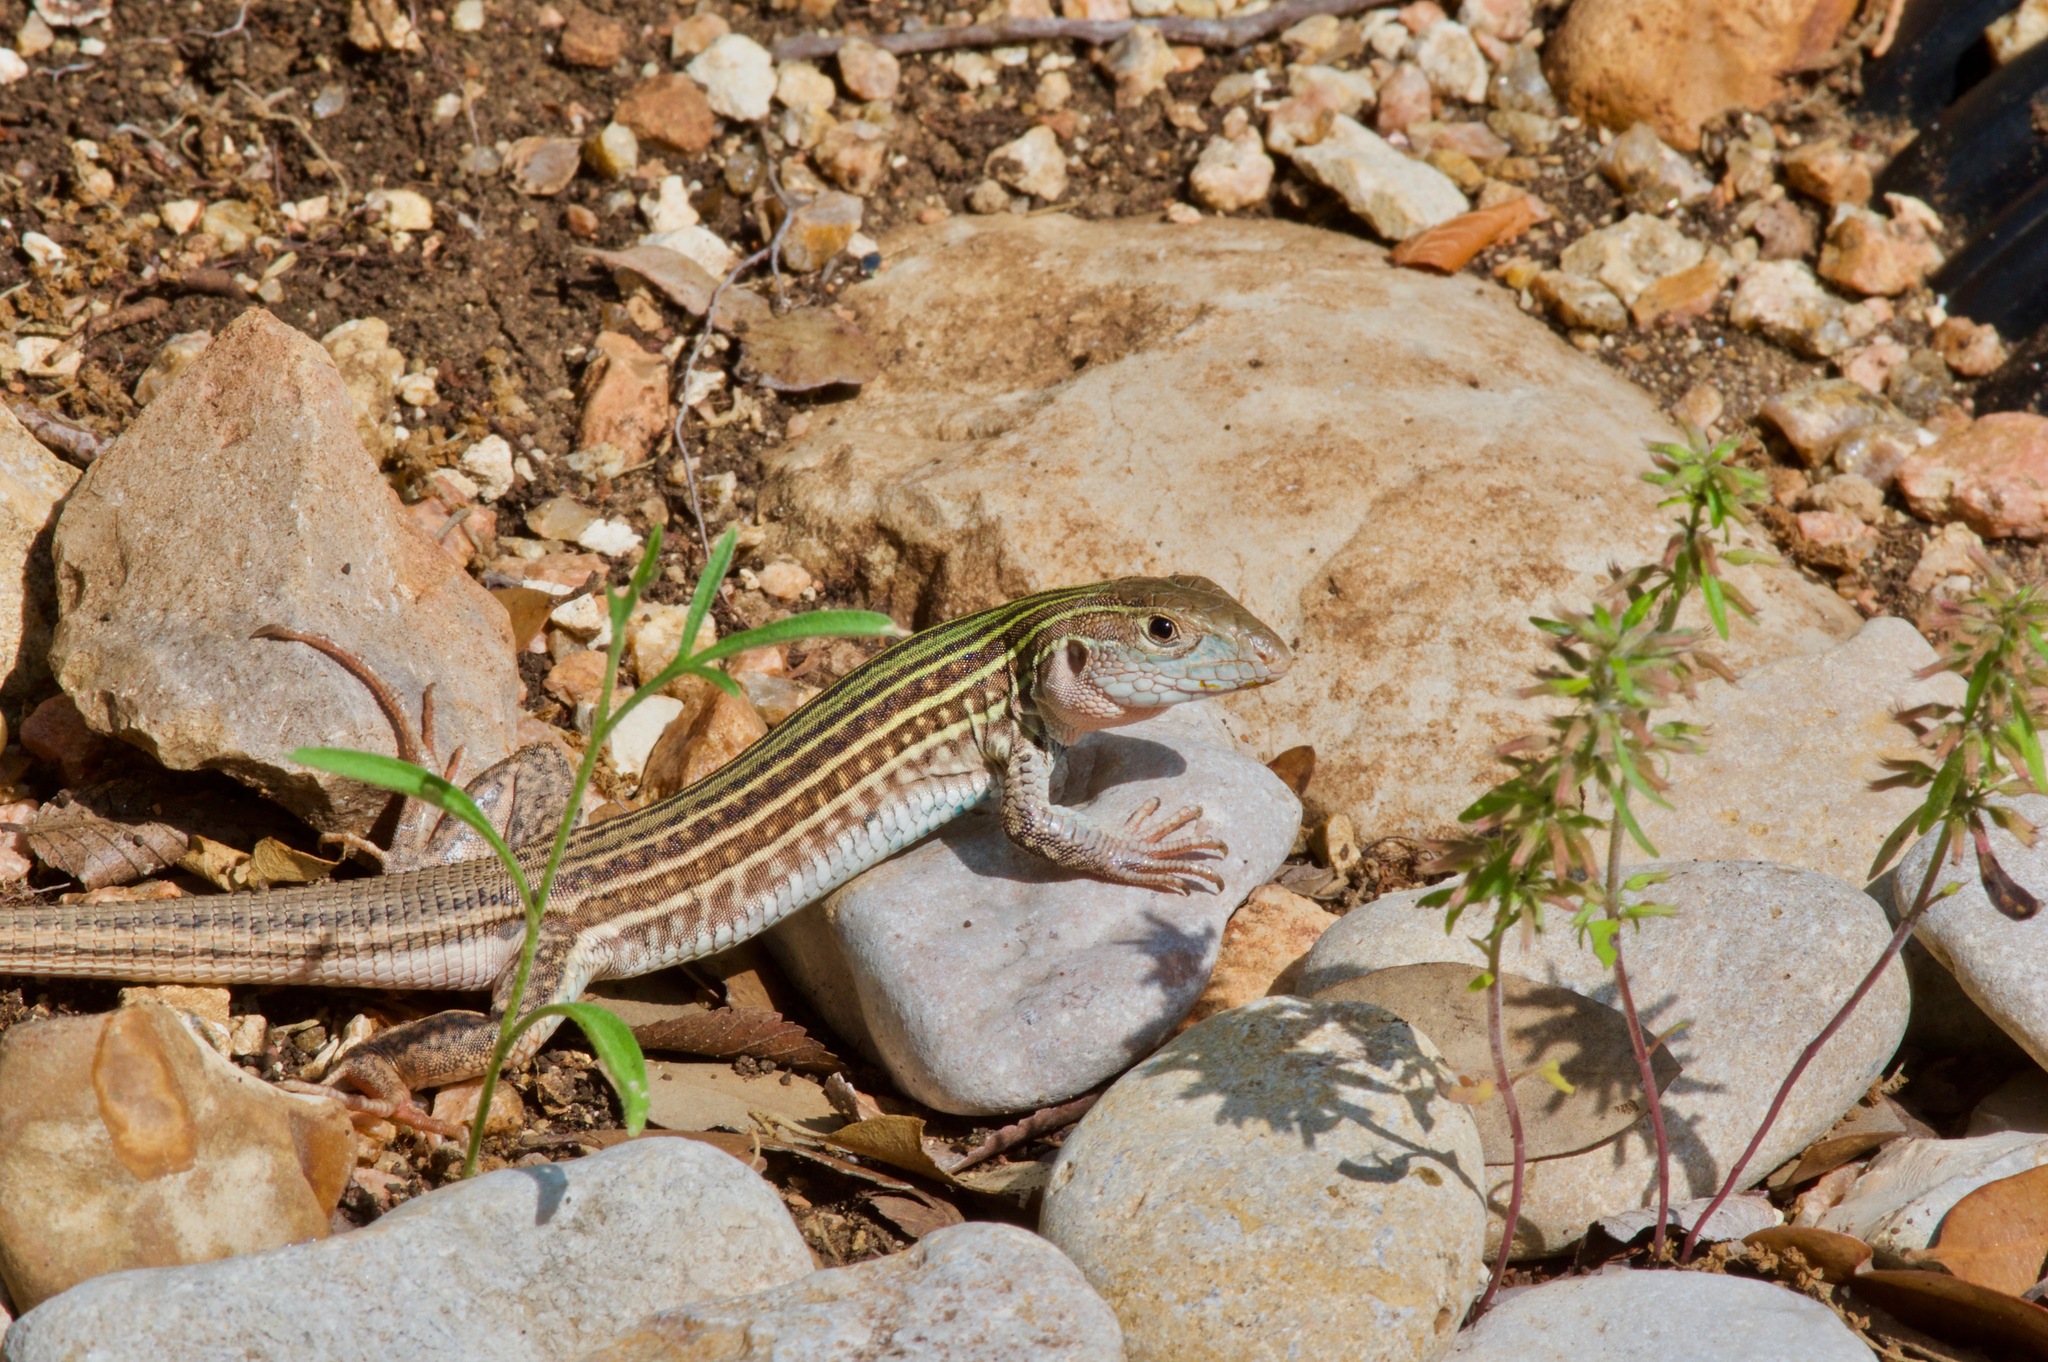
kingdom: Animalia
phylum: Chordata
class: Squamata
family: Teiidae
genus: Aspidoscelis
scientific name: Aspidoscelis gularis
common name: Eastern spotted whiptail
